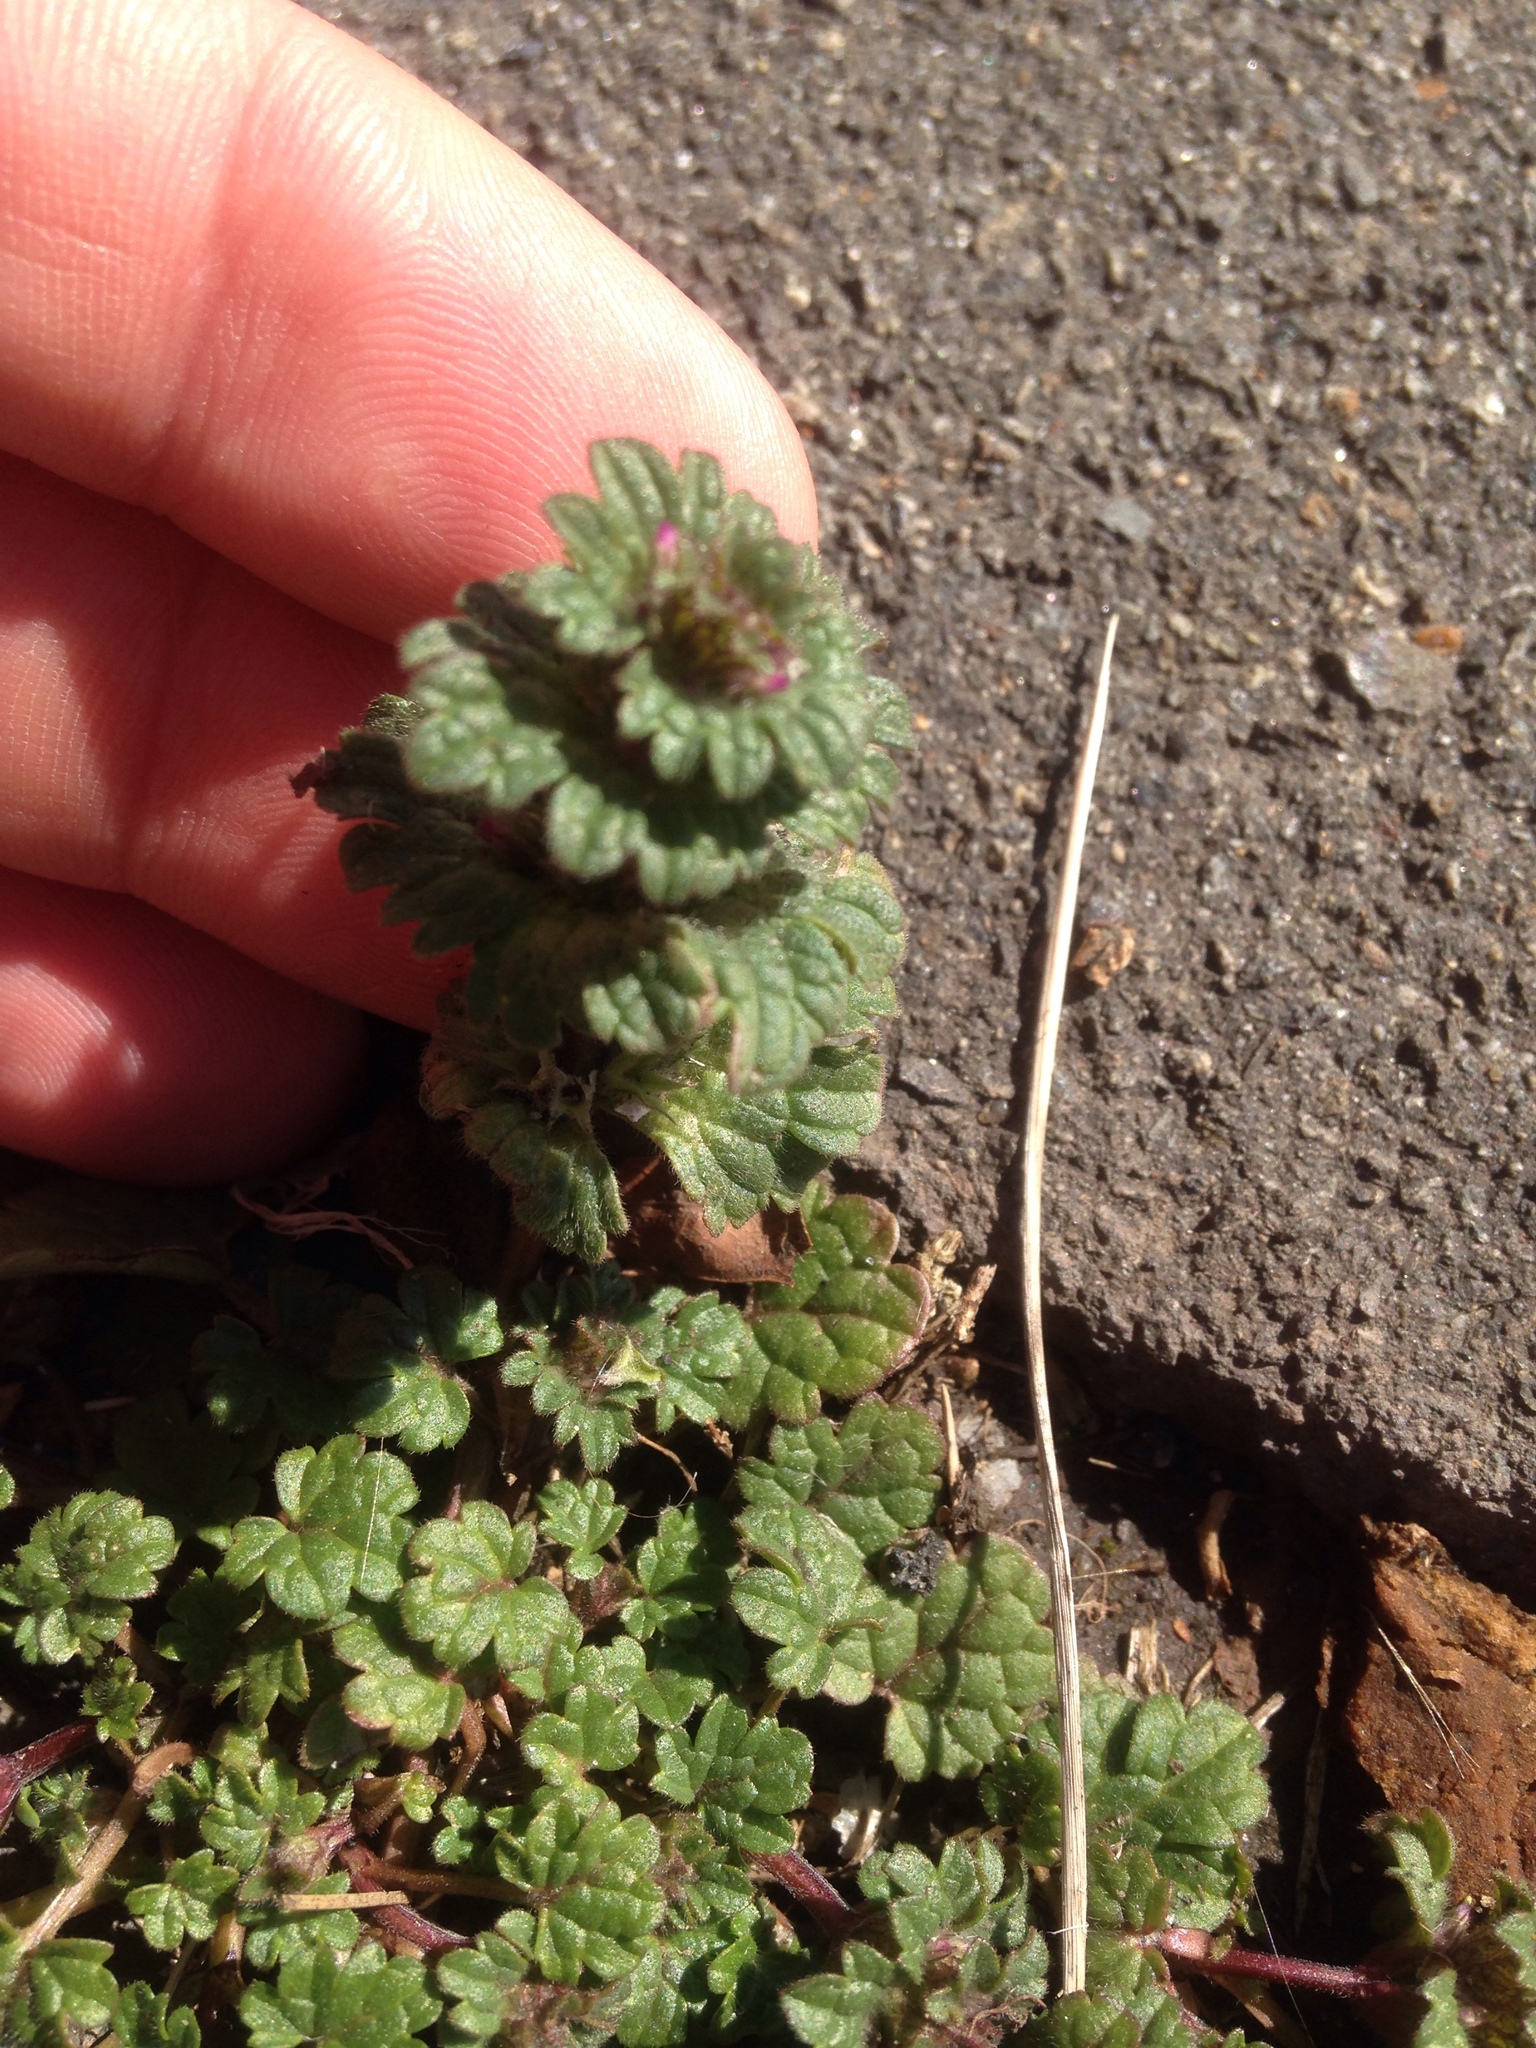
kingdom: Plantae
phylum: Tracheophyta
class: Magnoliopsida
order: Lamiales
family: Lamiaceae
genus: Lamium
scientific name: Lamium amplexicaule
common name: Henbit dead-nettle
